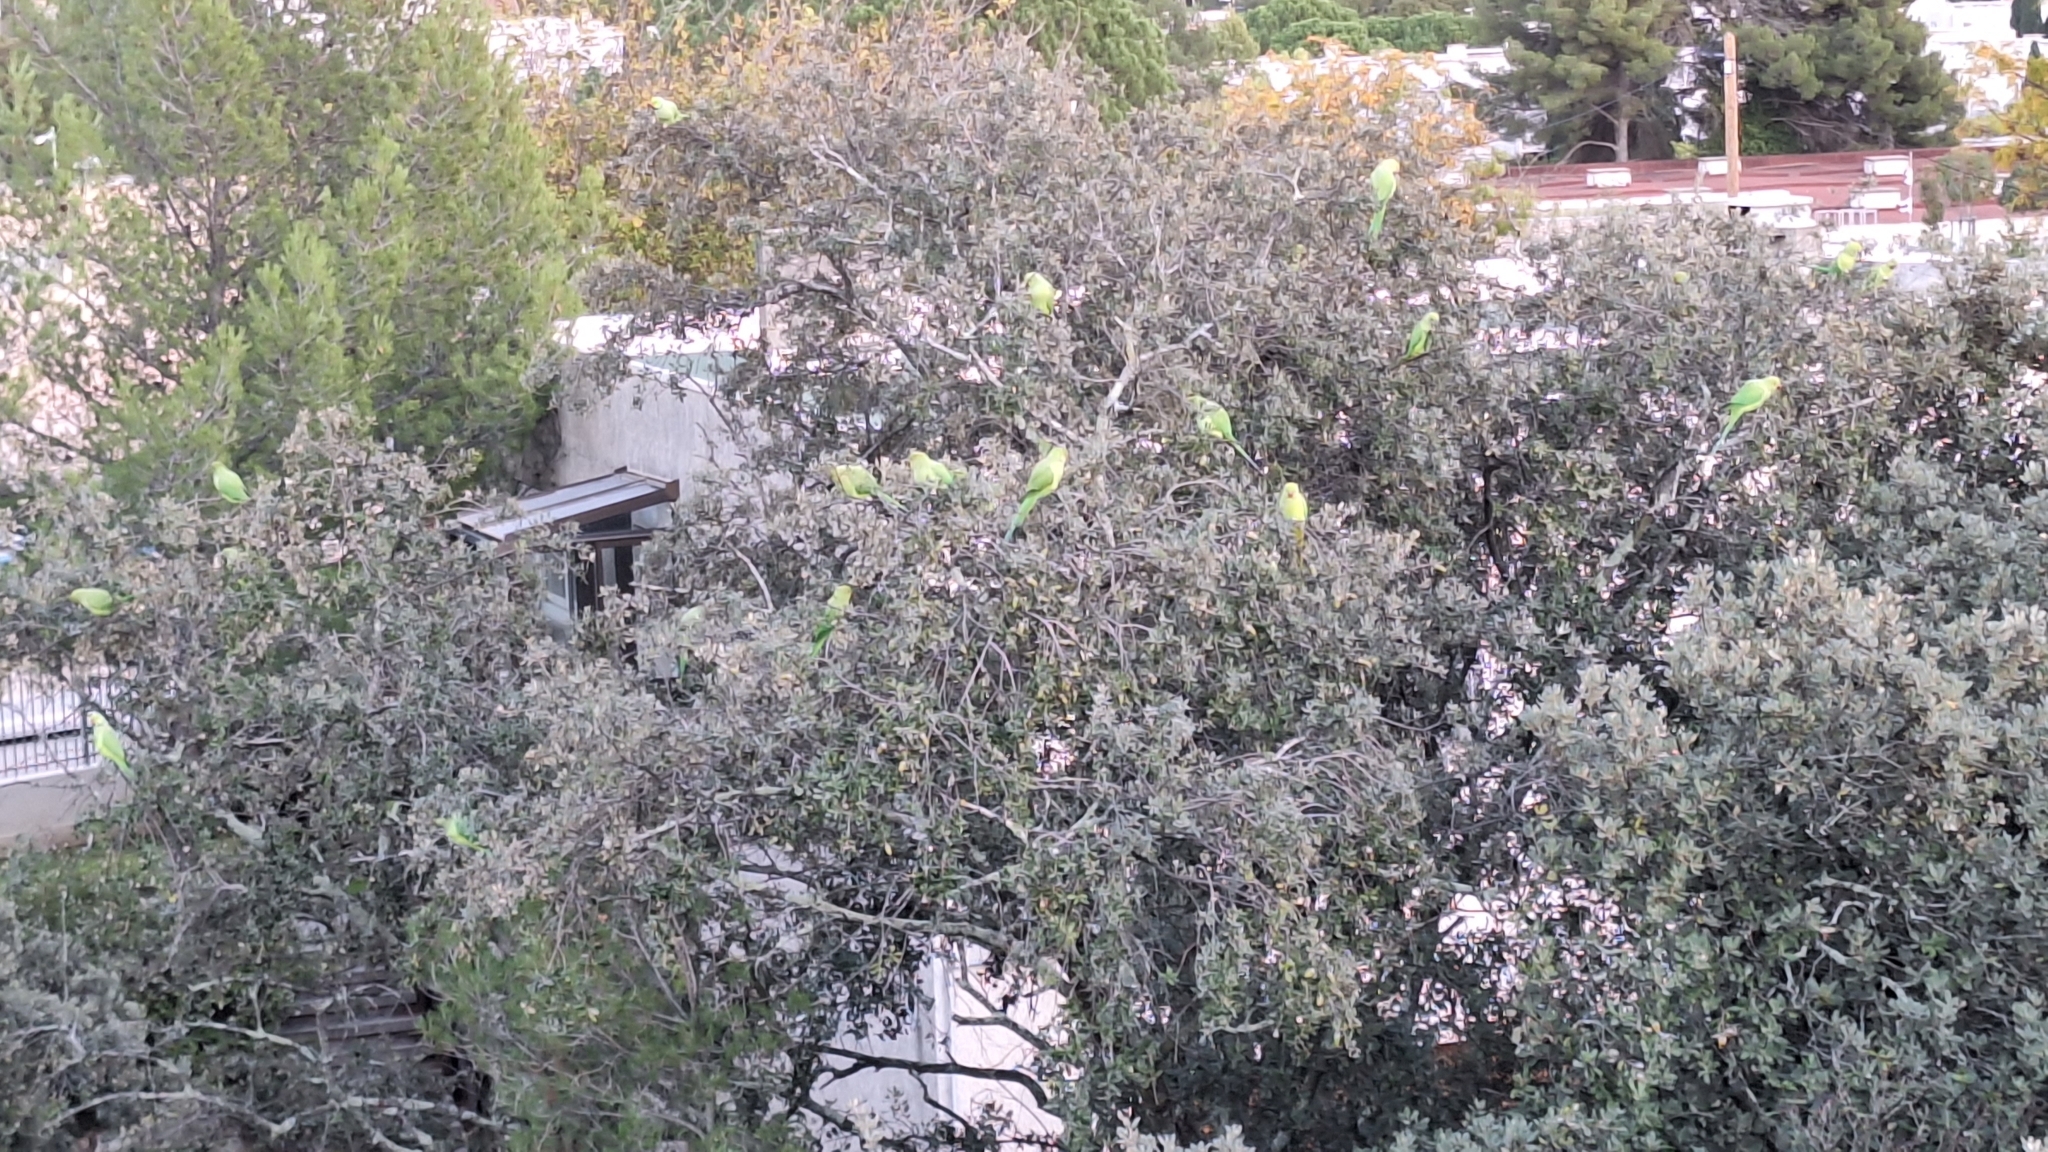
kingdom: Animalia
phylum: Chordata
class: Aves
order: Psittaciformes
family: Psittacidae
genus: Psittacula
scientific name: Psittacula krameri
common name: Rose-ringed parakeet
